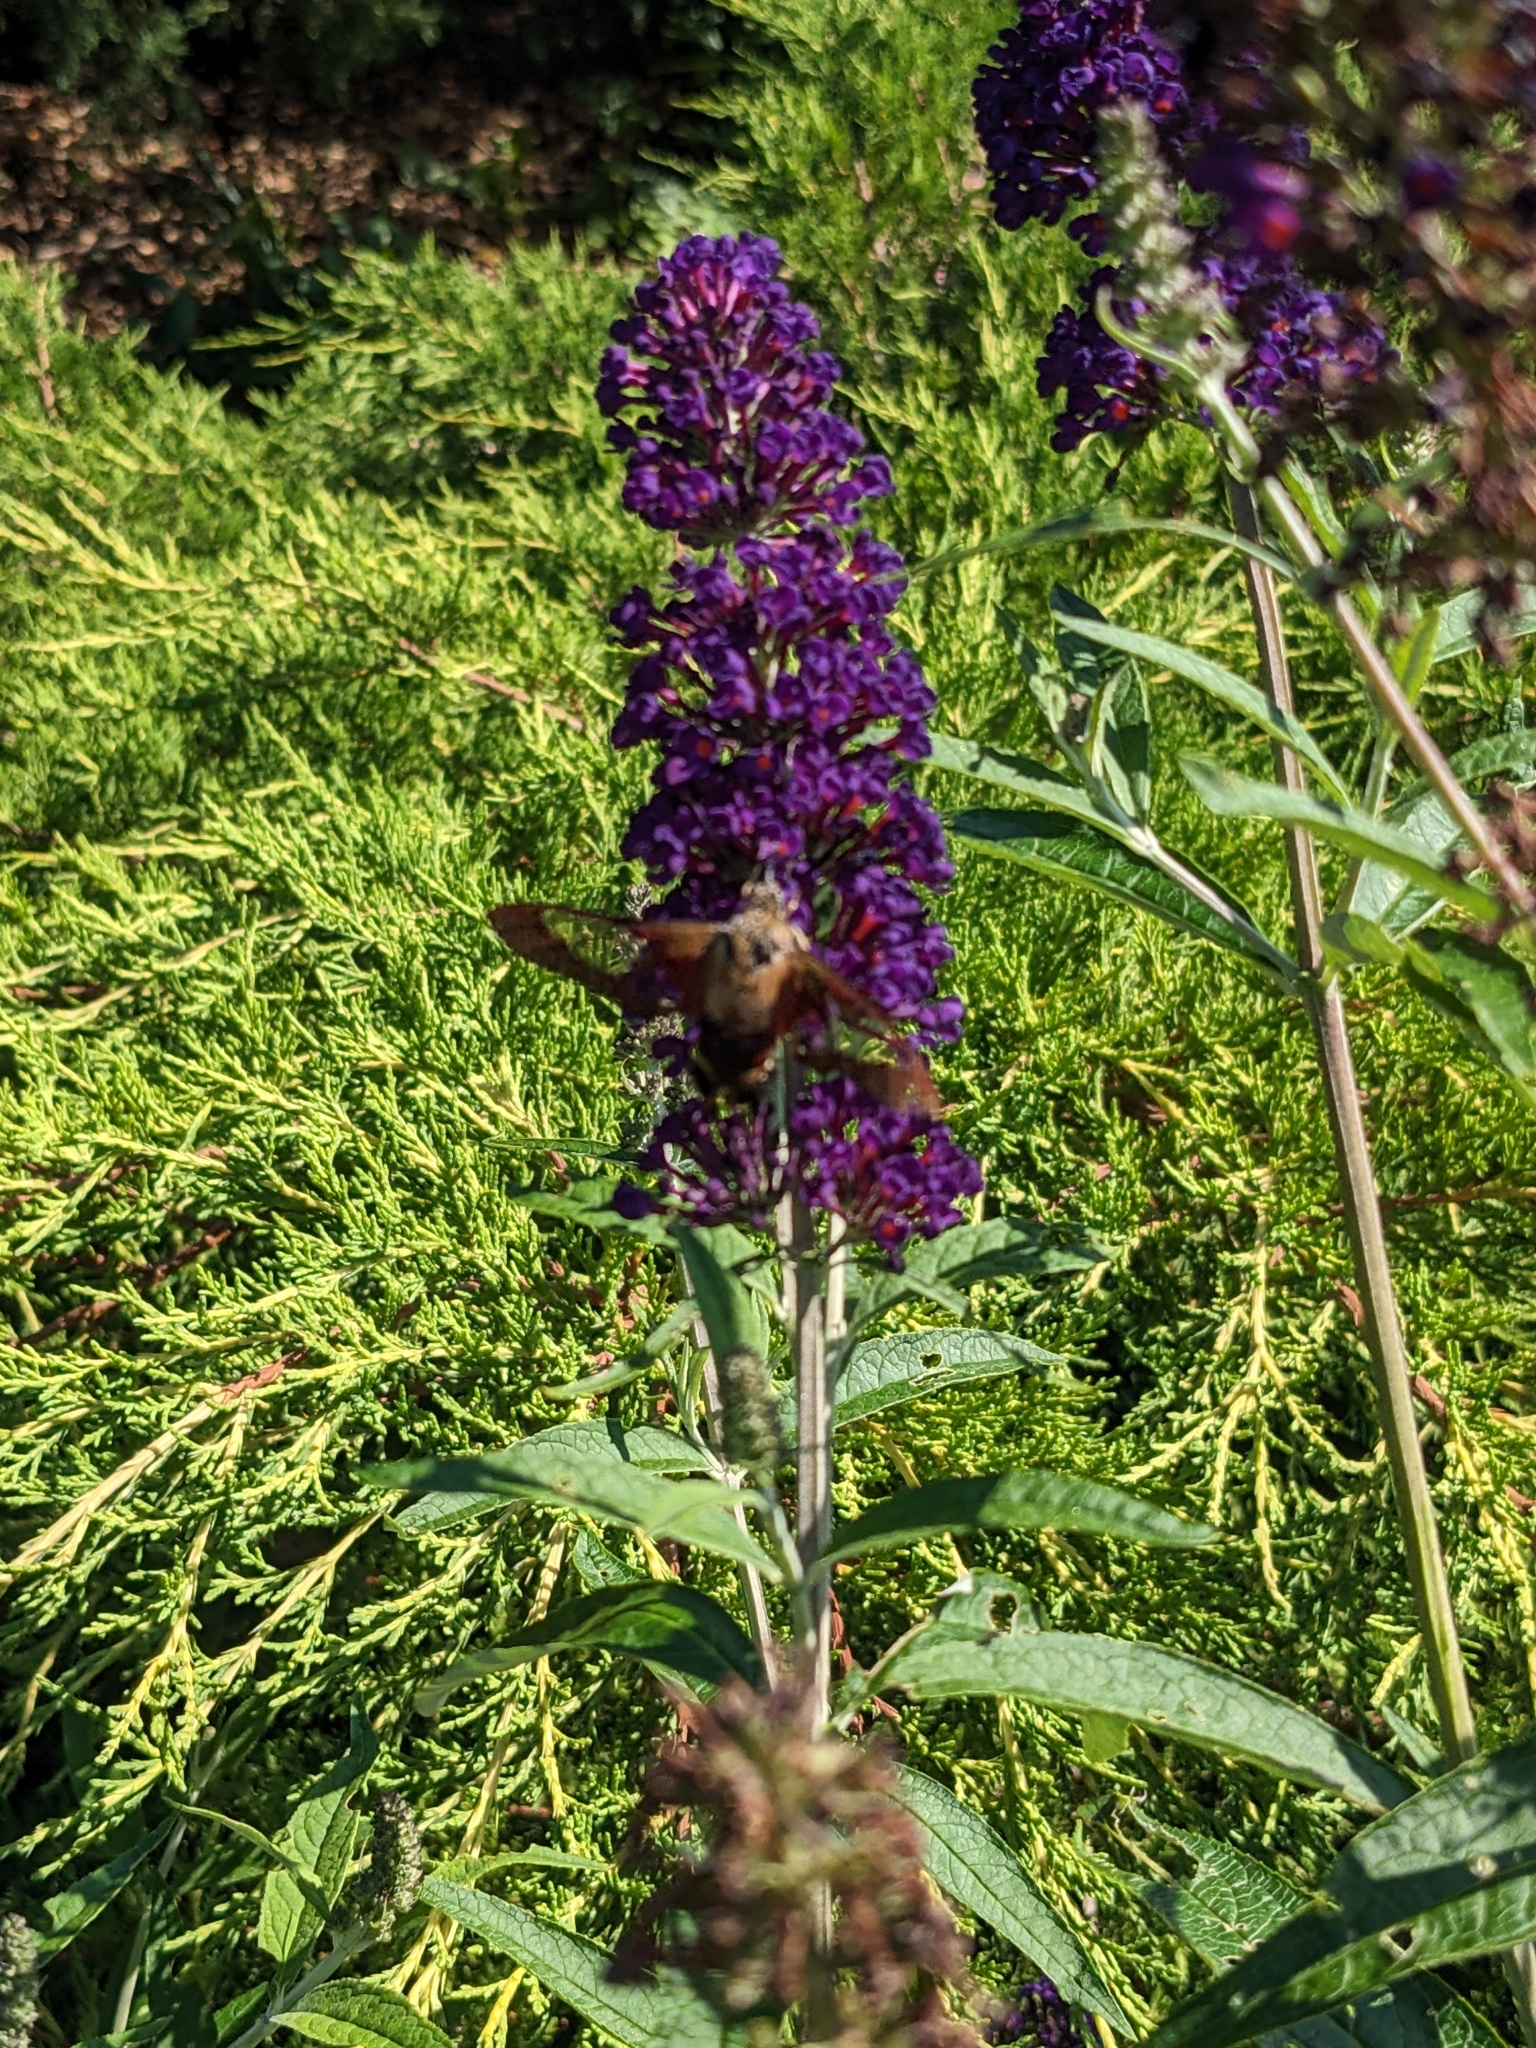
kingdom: Animalia
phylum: Arthropoda
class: Insecta
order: Lepidoptera
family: Sphingidae
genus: Hemaris
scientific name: Hemaris thysbe
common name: Common clear-wing
